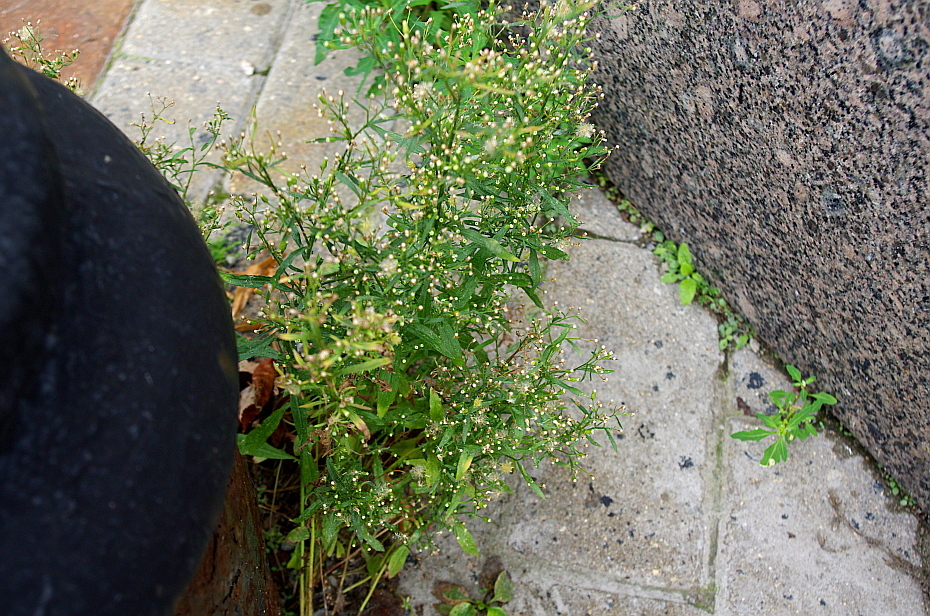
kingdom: Plantae
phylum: Tracheophyta
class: Magnoliopsida
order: Asterales
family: Asteraceae
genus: Erigeron
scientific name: Erigeron canadensis
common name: Canadian fleabane
